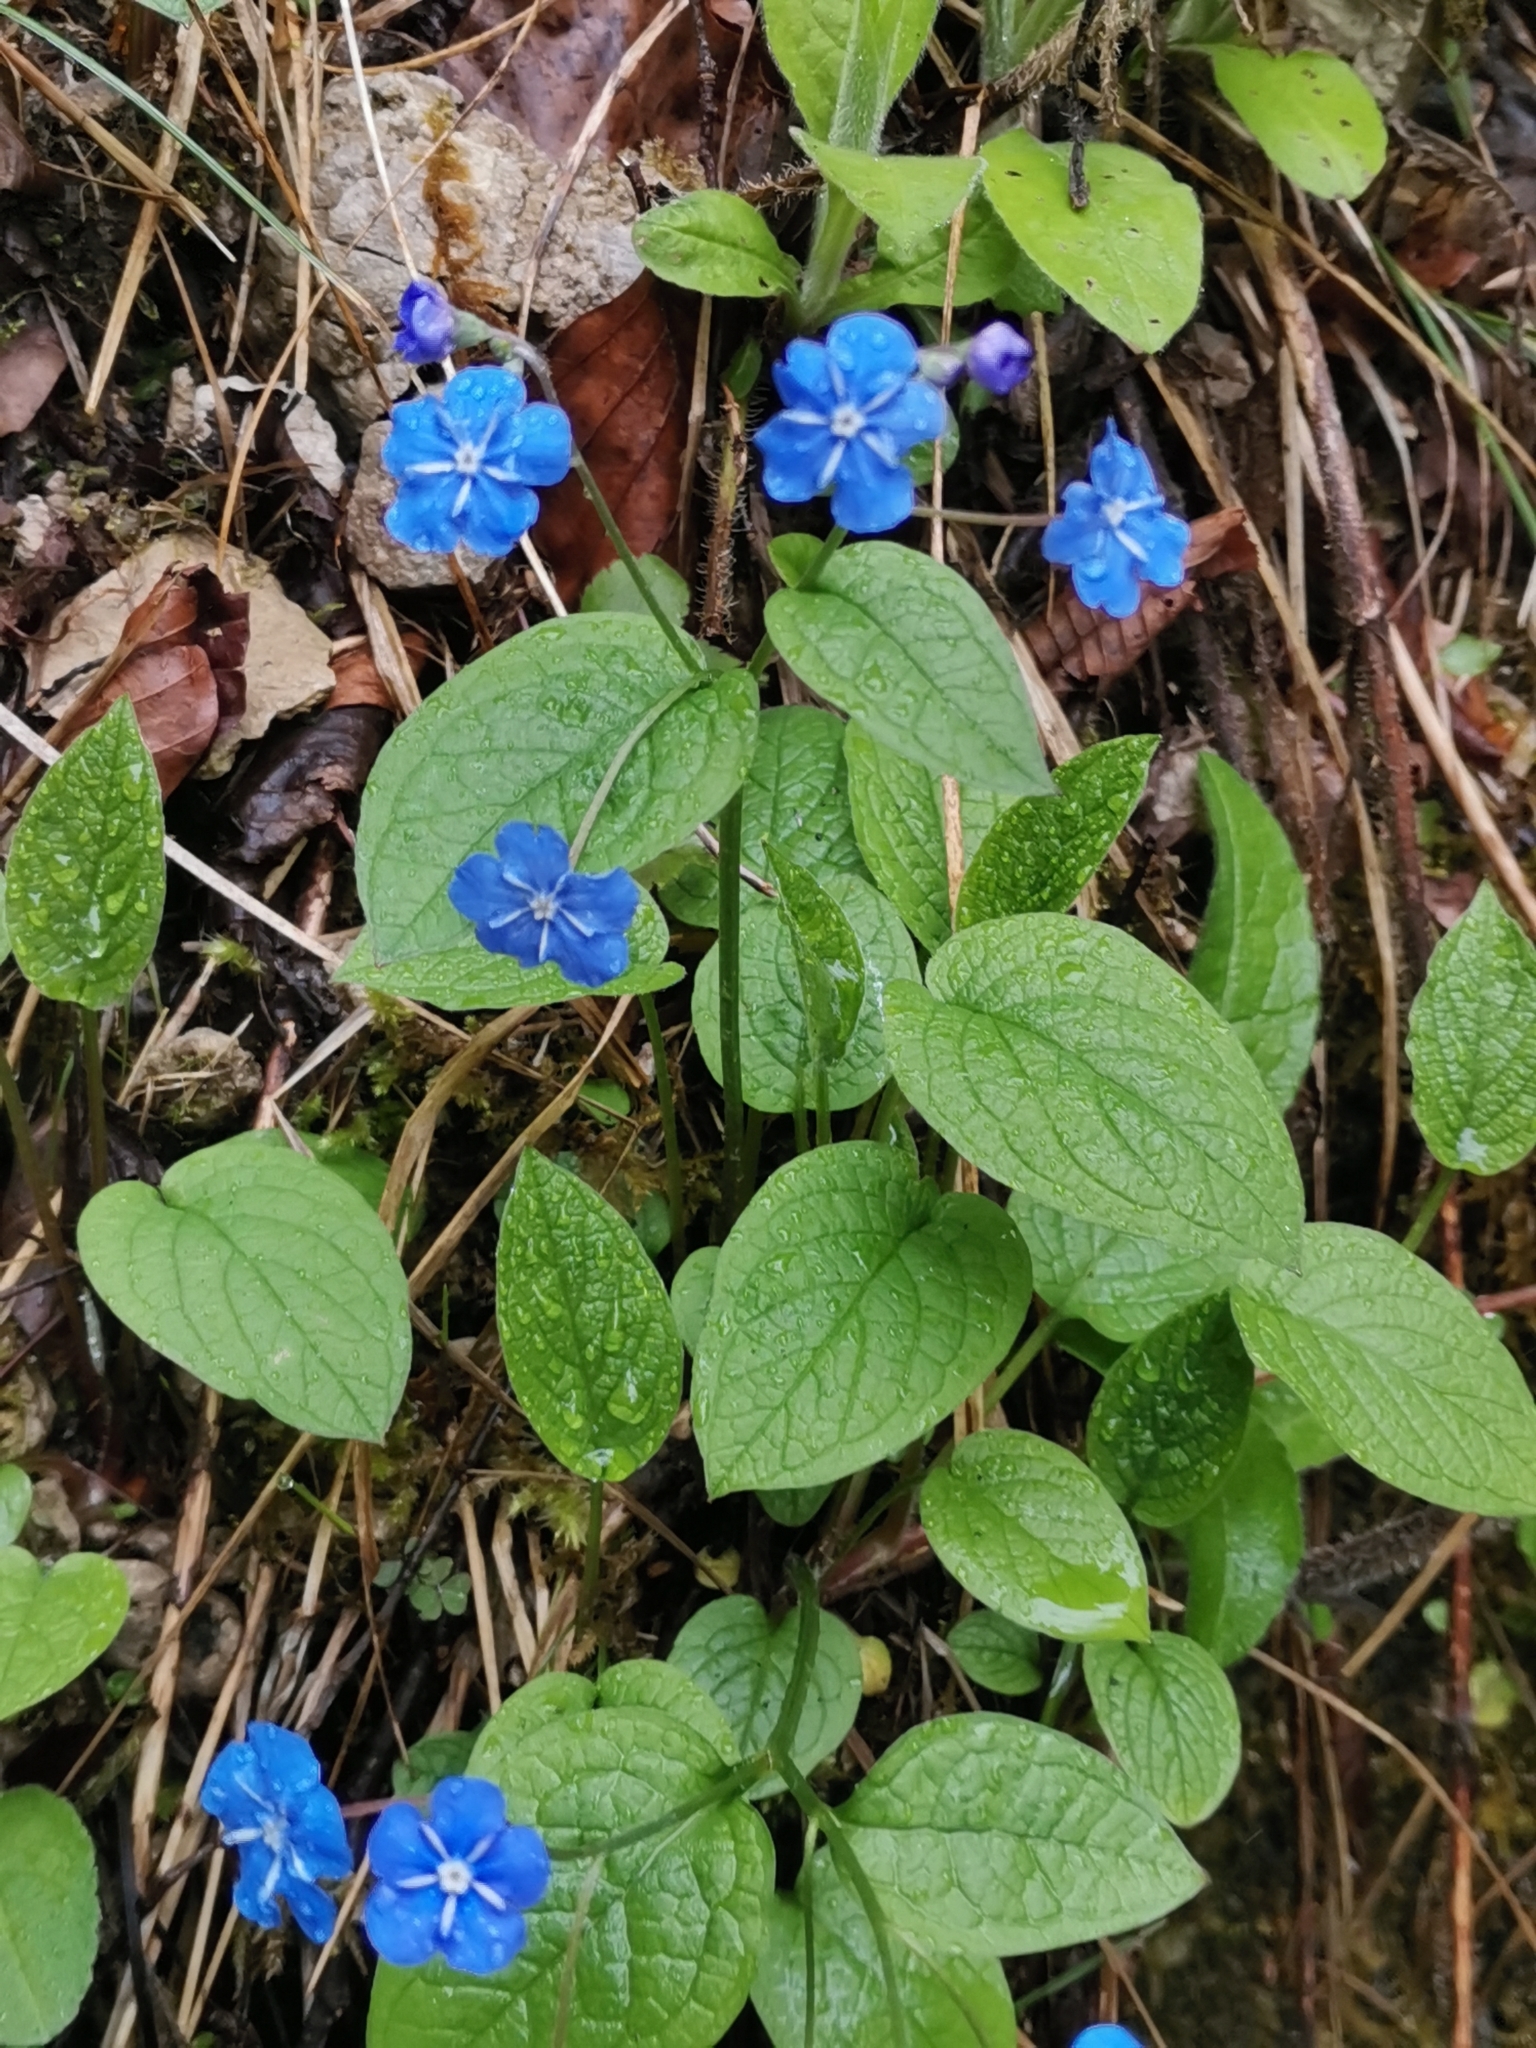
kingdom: Plantae
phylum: Tracheophyta
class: Magnoliopsida
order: Boraginales
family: Boraginaceae
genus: Omphalodes
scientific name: Omphalodes verna
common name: Blue-eyed-mary
